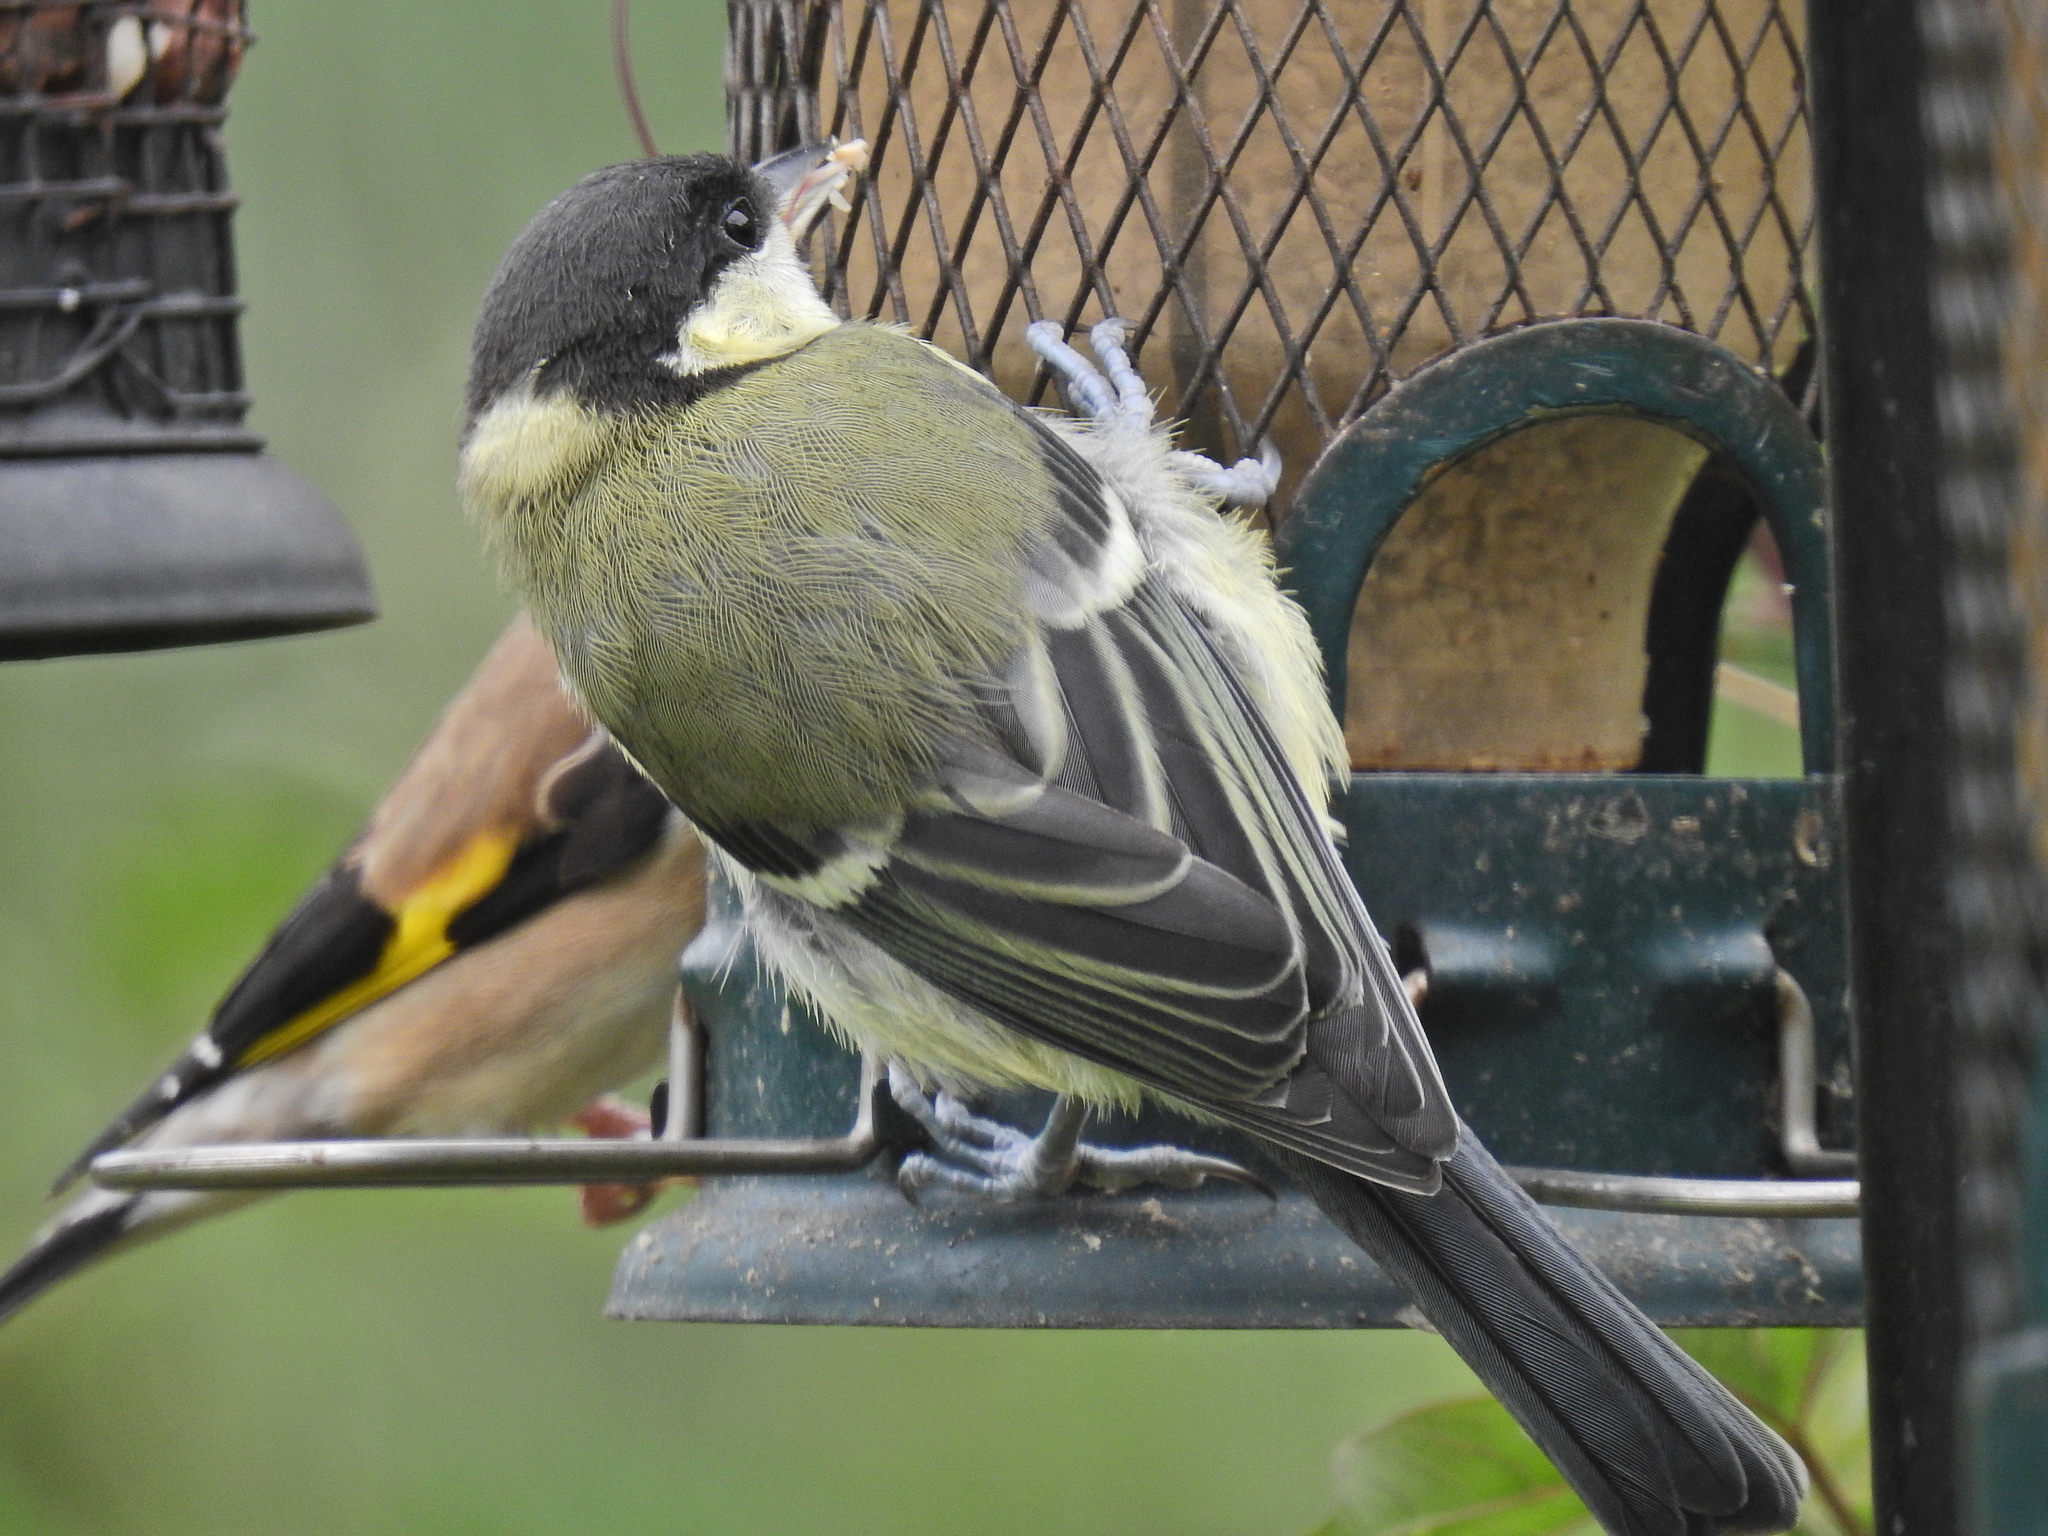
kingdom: Animalia
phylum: Chordata
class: Aves
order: Passeriformes
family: Paridae
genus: Parus
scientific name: Parus major
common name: Great tit
